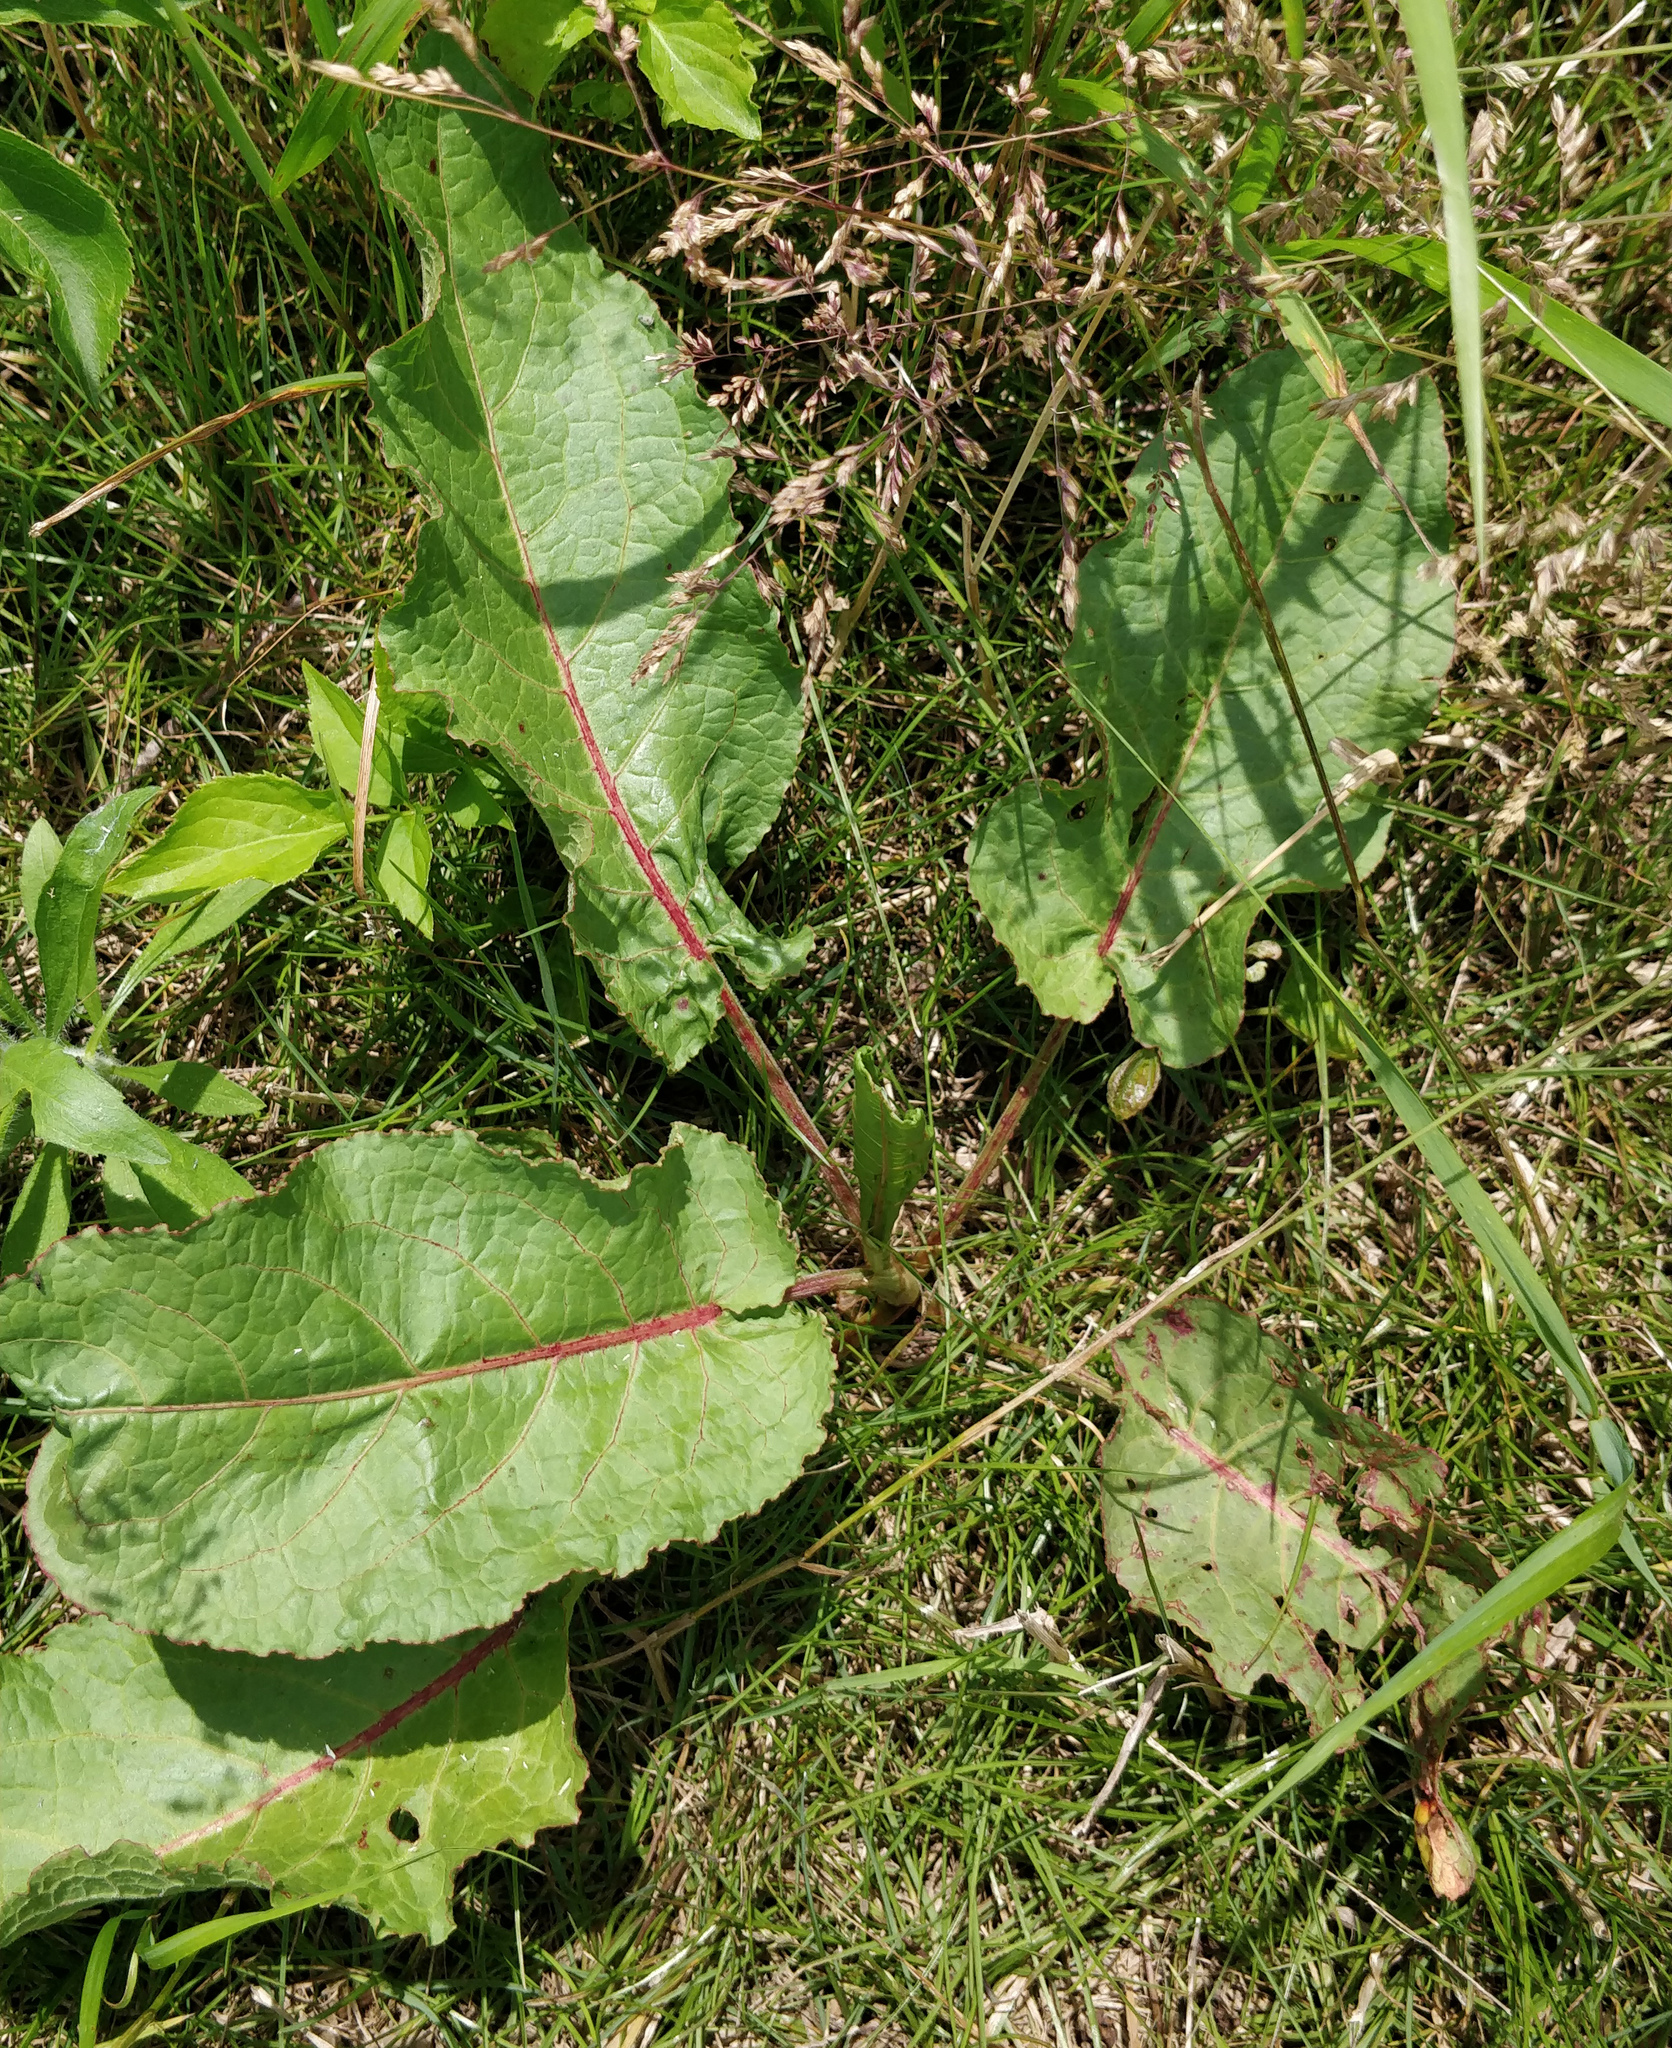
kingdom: Plantae
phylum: Tracheophyta
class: Magnoliopsida
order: Caryophyllales
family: Polygonaceae
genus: Rumex
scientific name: Rumex obtusifolius
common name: Bitter dock
